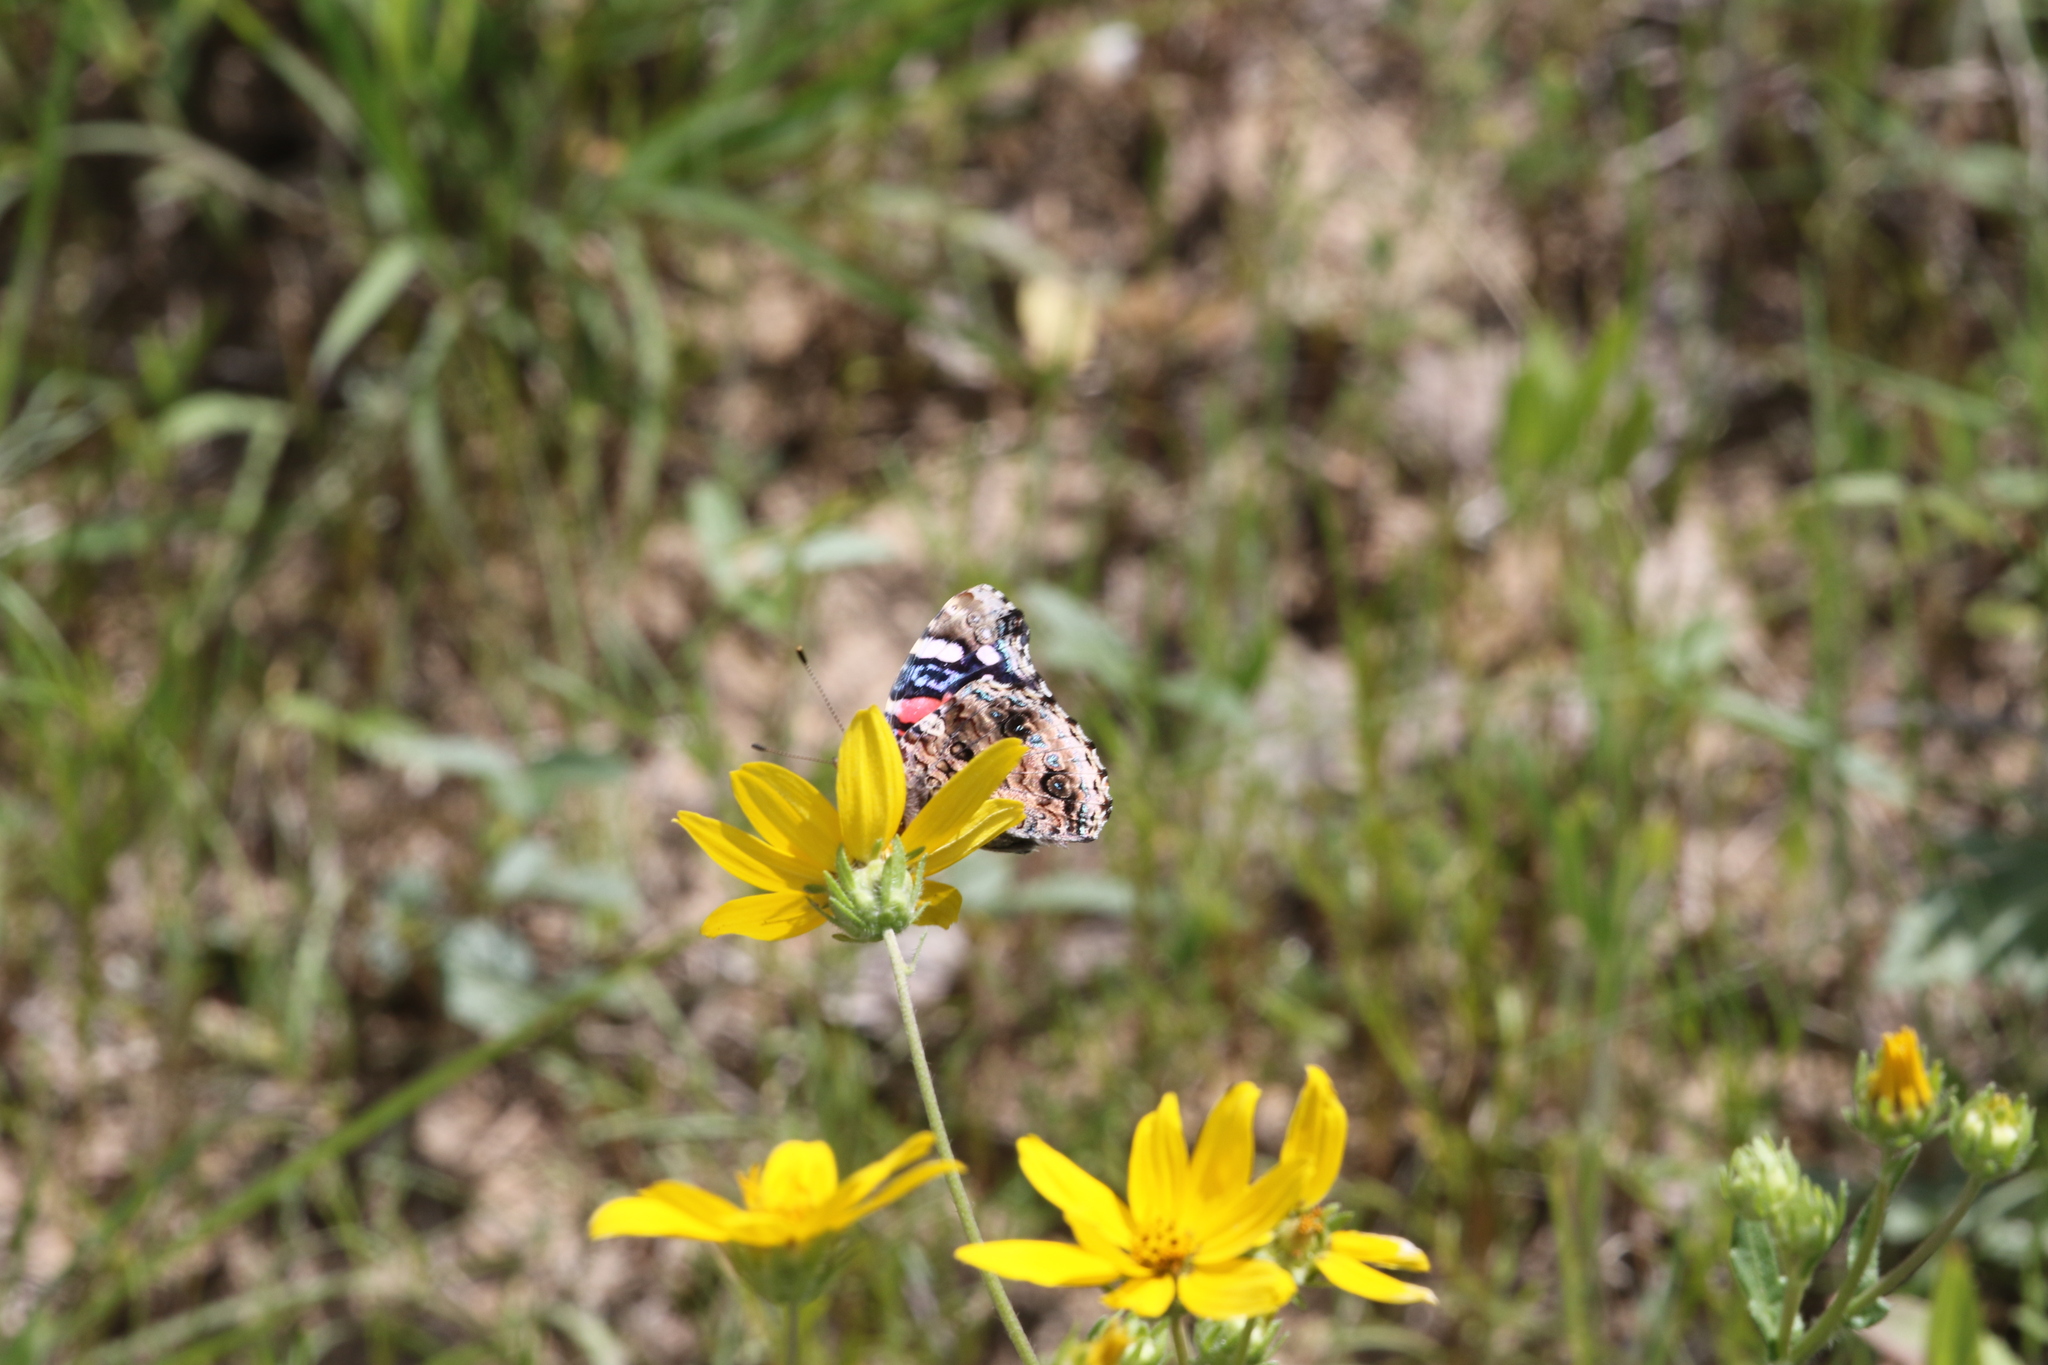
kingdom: Animalia
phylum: Arthropoda
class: Insecta
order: Lepidoptera
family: Nymphalidae
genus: Vanessa
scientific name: Vanessa atalanta
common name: Red admiral
